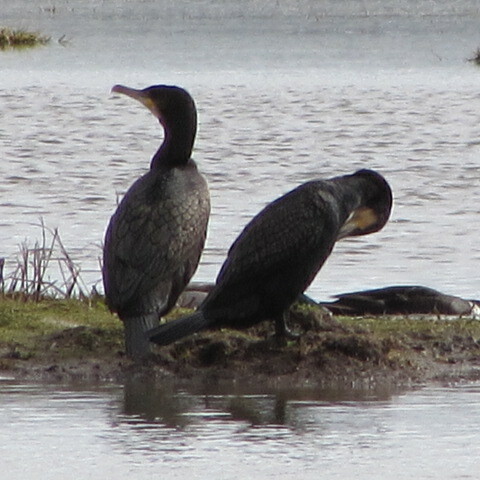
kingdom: Animalia
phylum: Chordata
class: Aves
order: Suliformes
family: Phalacrocoracidae
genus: Phalacrocorax
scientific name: Phalacrocorax carbo
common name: Great cormorant
